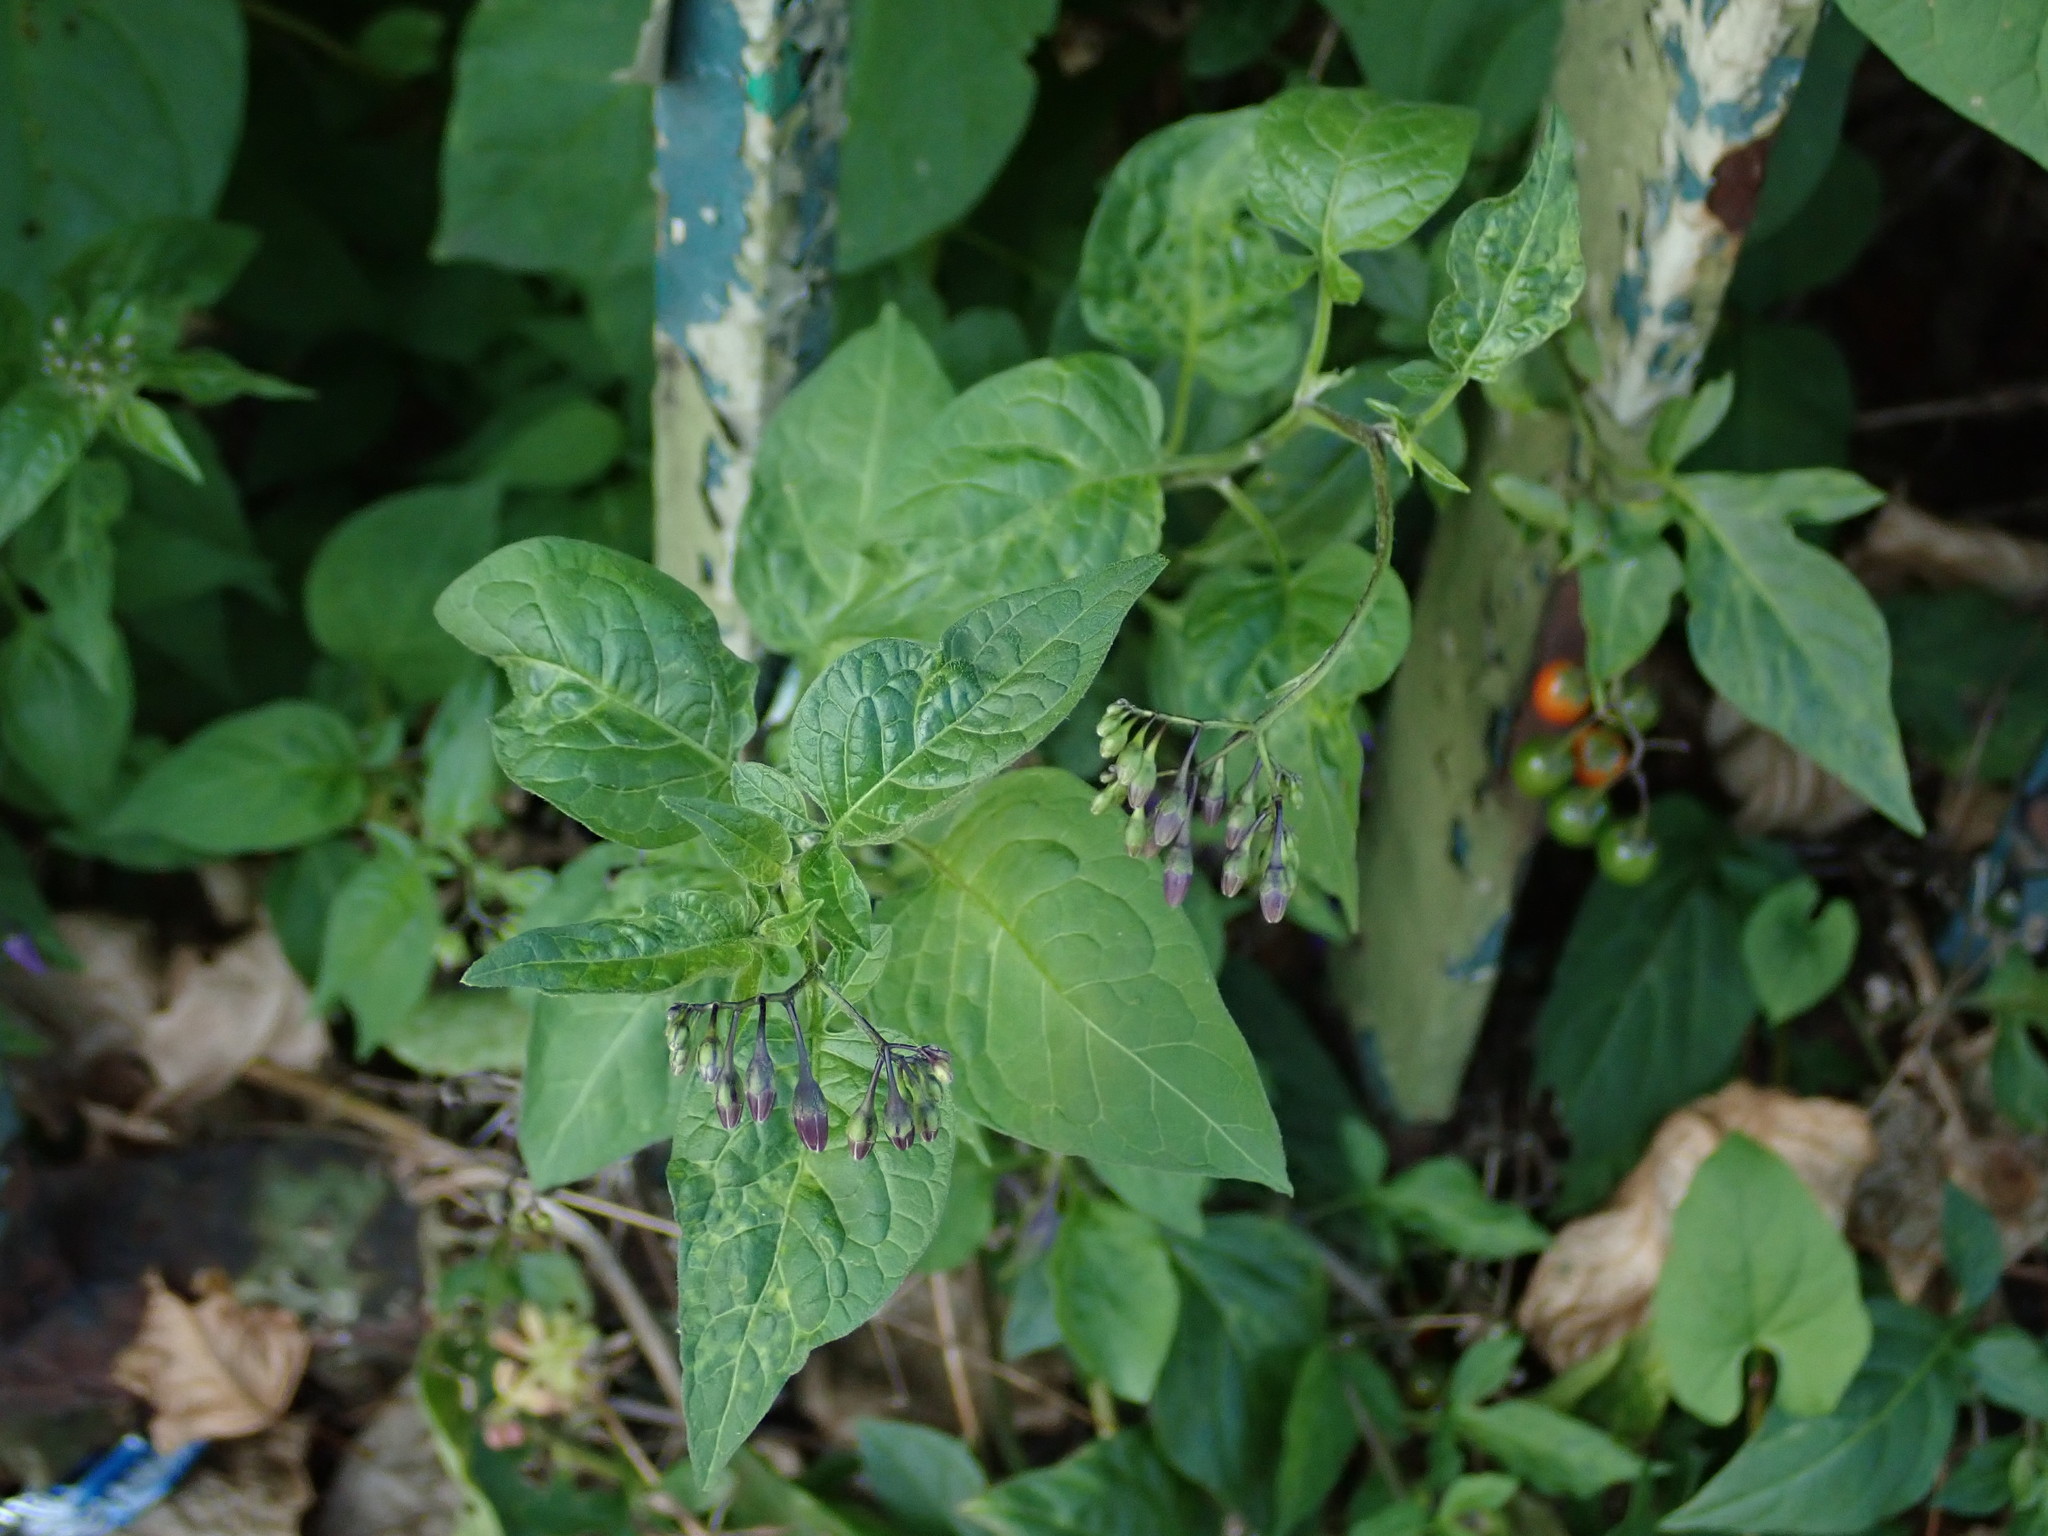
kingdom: Plantae
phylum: Tracheophyta
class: Magnoliopsida
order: Solanales
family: Solanaceae
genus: Solanum
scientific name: Solanum dulcamara
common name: Climbing nightshade
